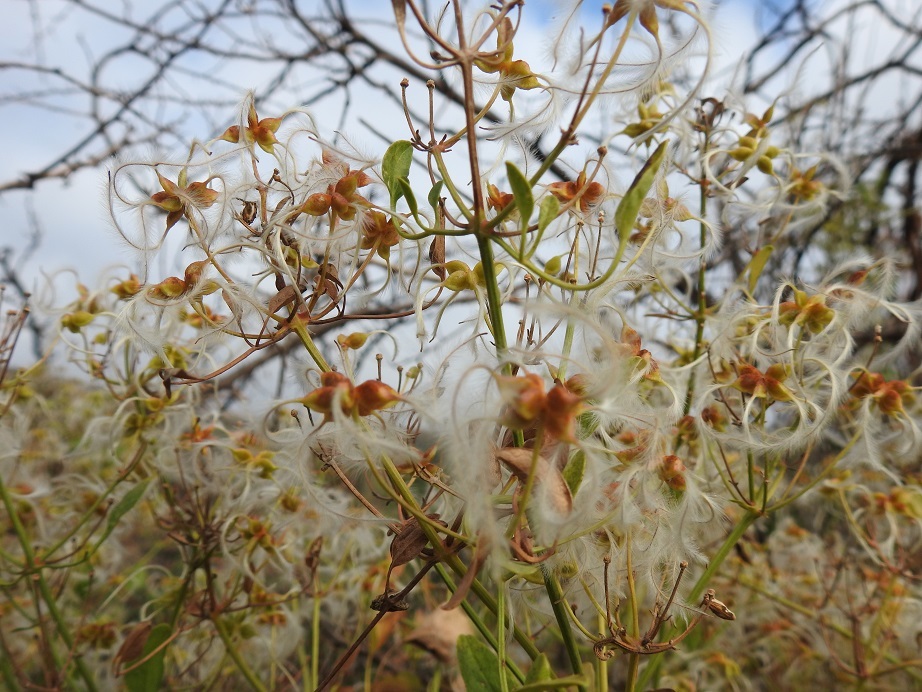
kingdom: Plantae
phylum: Tracheophyta
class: Magnoliopsida
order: Ranunculales
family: Ranunculaceae
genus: Clematis
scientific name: Clematis flammula
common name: Virgin's-bower
